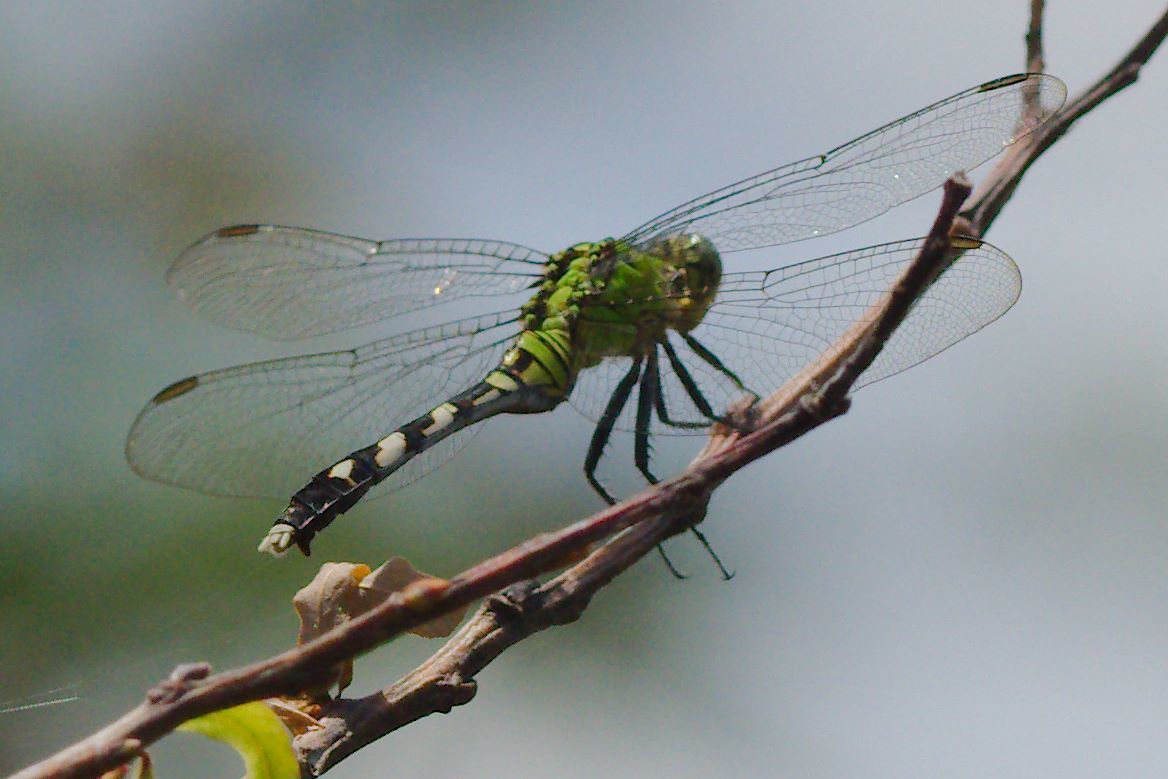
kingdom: Animalia
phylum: Arthropoda
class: Insecta
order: Odonata
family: Libellulidae
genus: Erythemis
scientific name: Erythemis simplicicollis
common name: Eastern pondhawk
